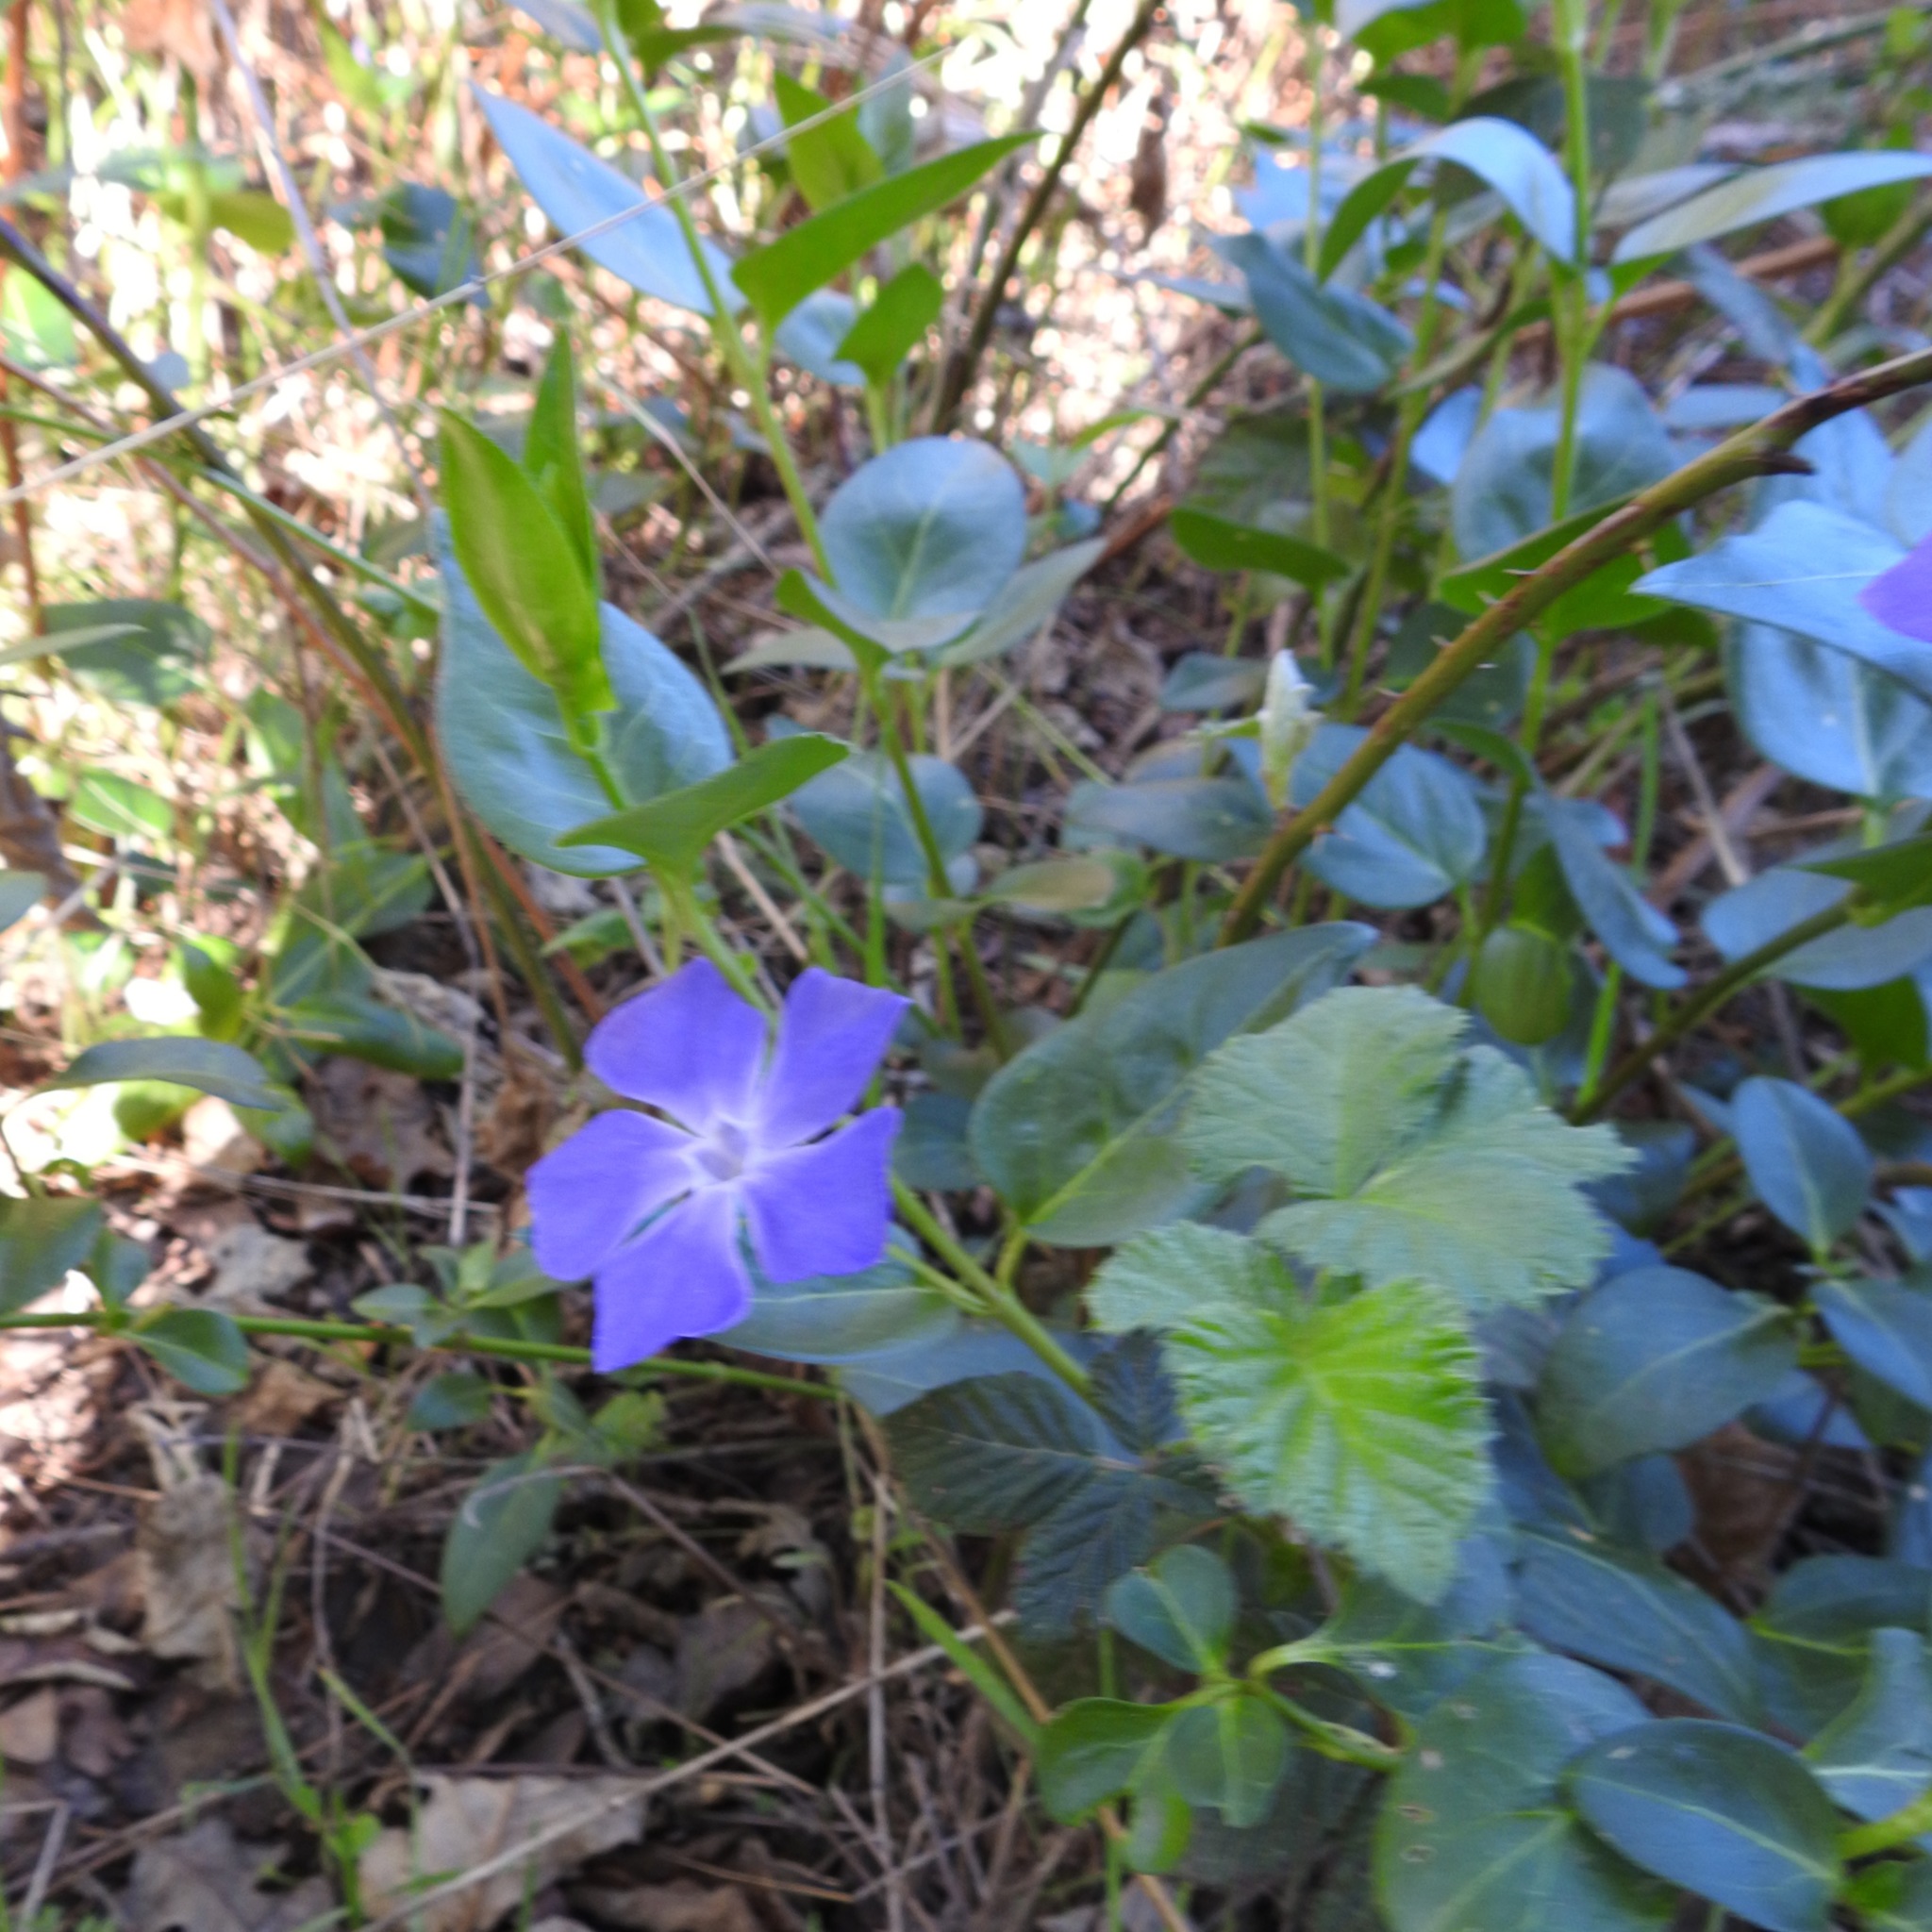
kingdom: Plantae
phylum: Tracheophyta
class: Magnoliopsida
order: Gentianales
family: Apocynaceae
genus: Vinca
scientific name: Vinca major
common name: Greater periwinkle
